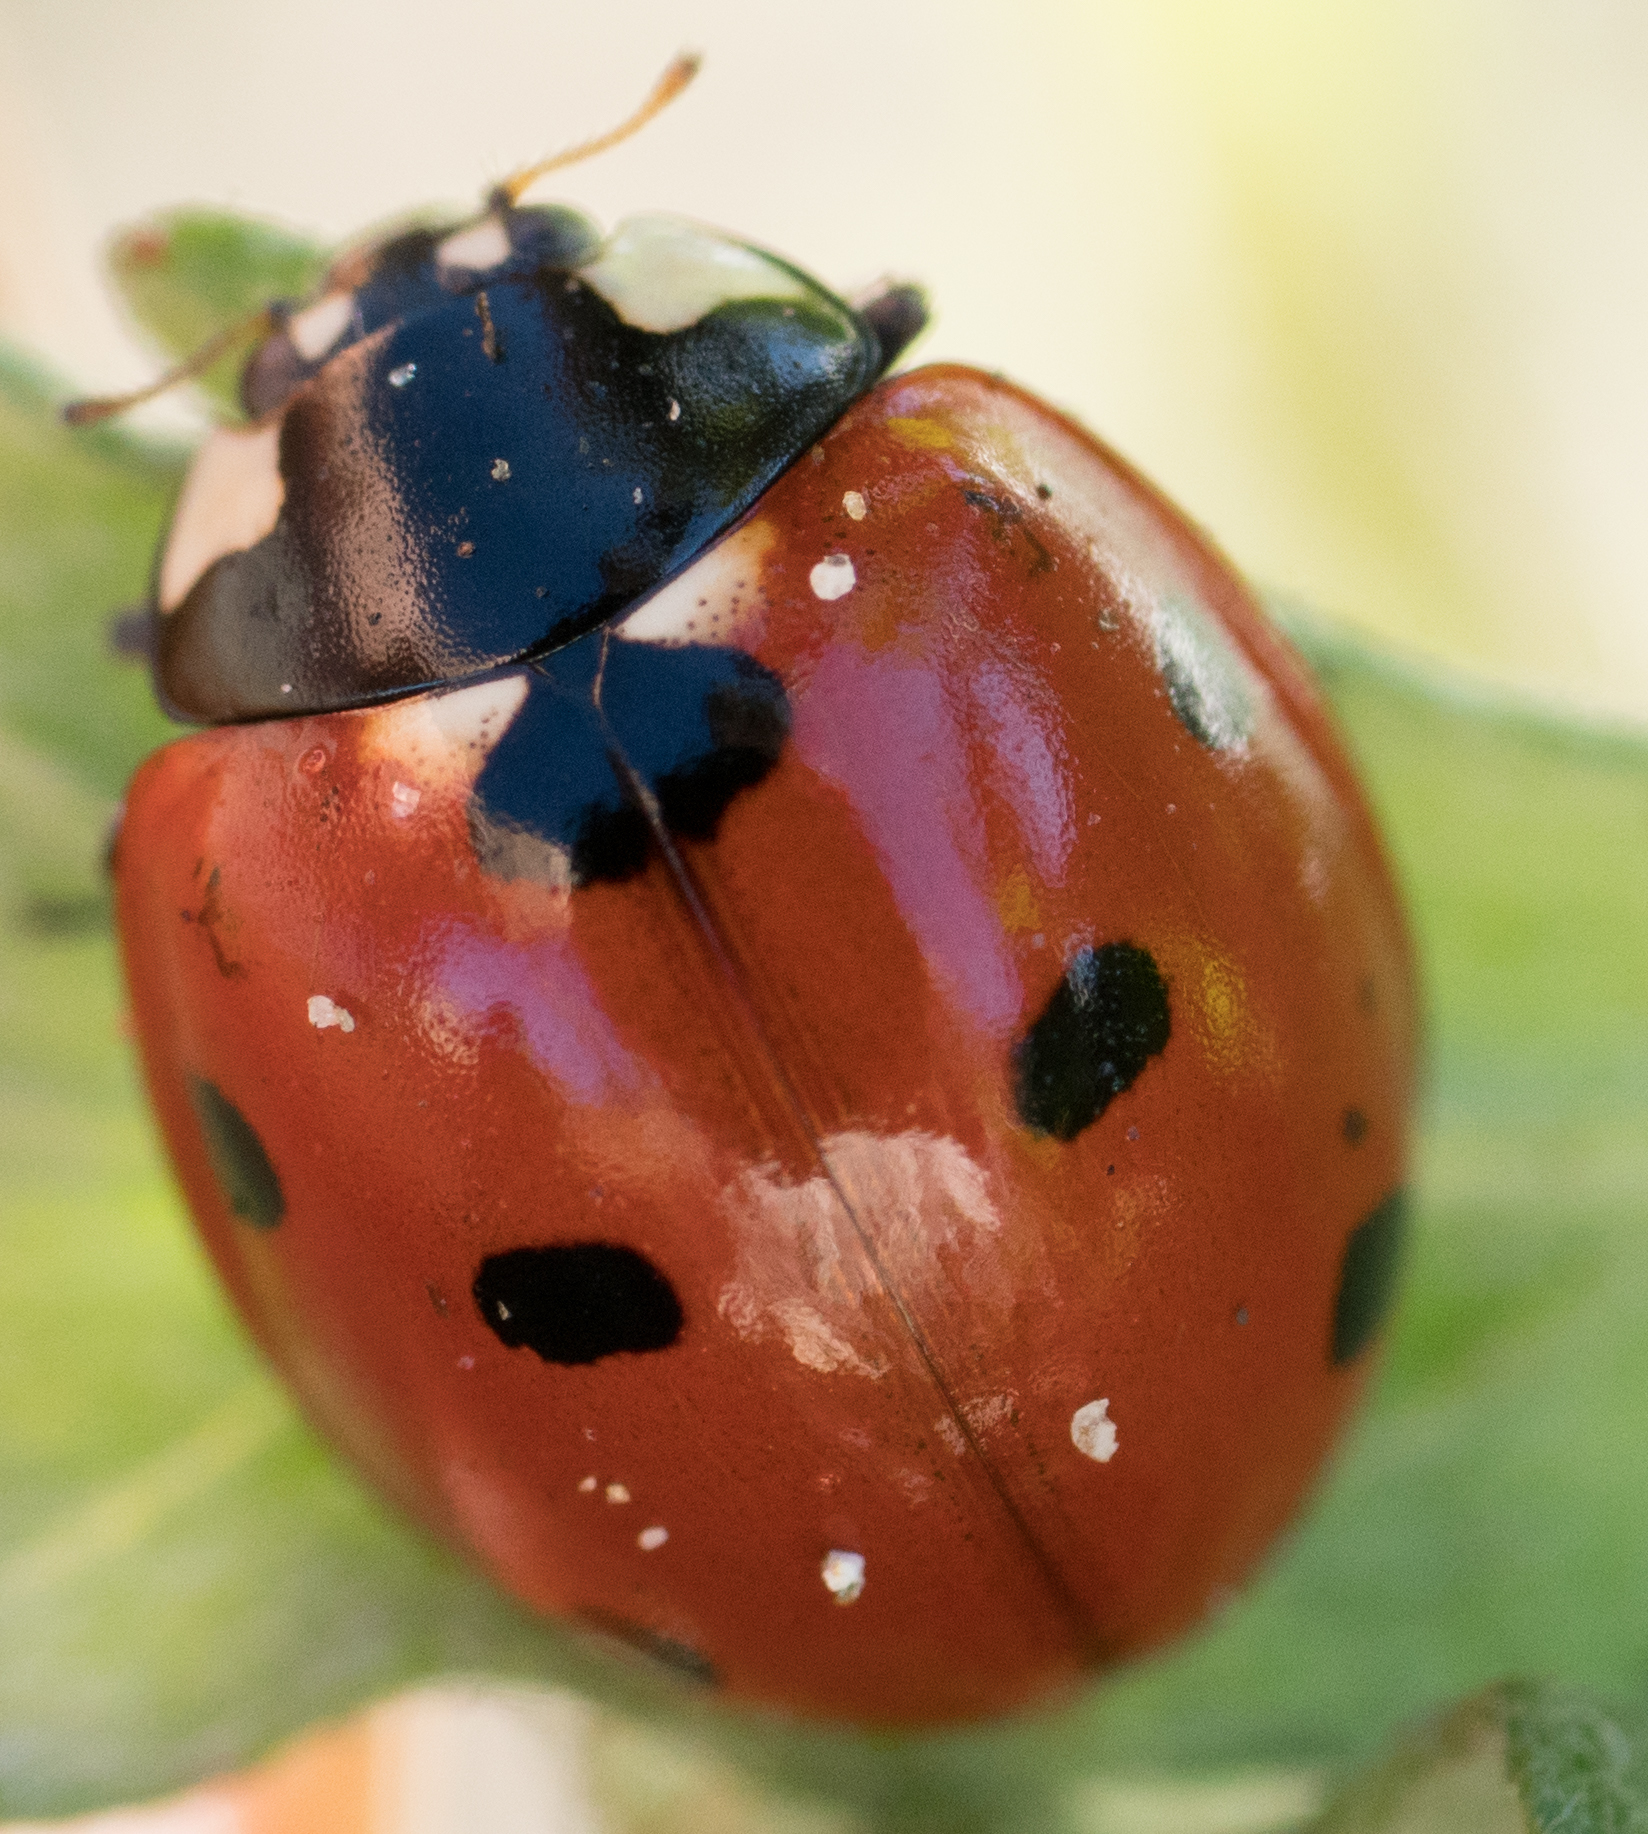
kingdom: Animalia
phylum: Arthropoda
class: Insecta
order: Coleoptera
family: Coccinellidae
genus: Coccinella
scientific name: Coccinella septempunctata
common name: Sevenspotted lady beetle
